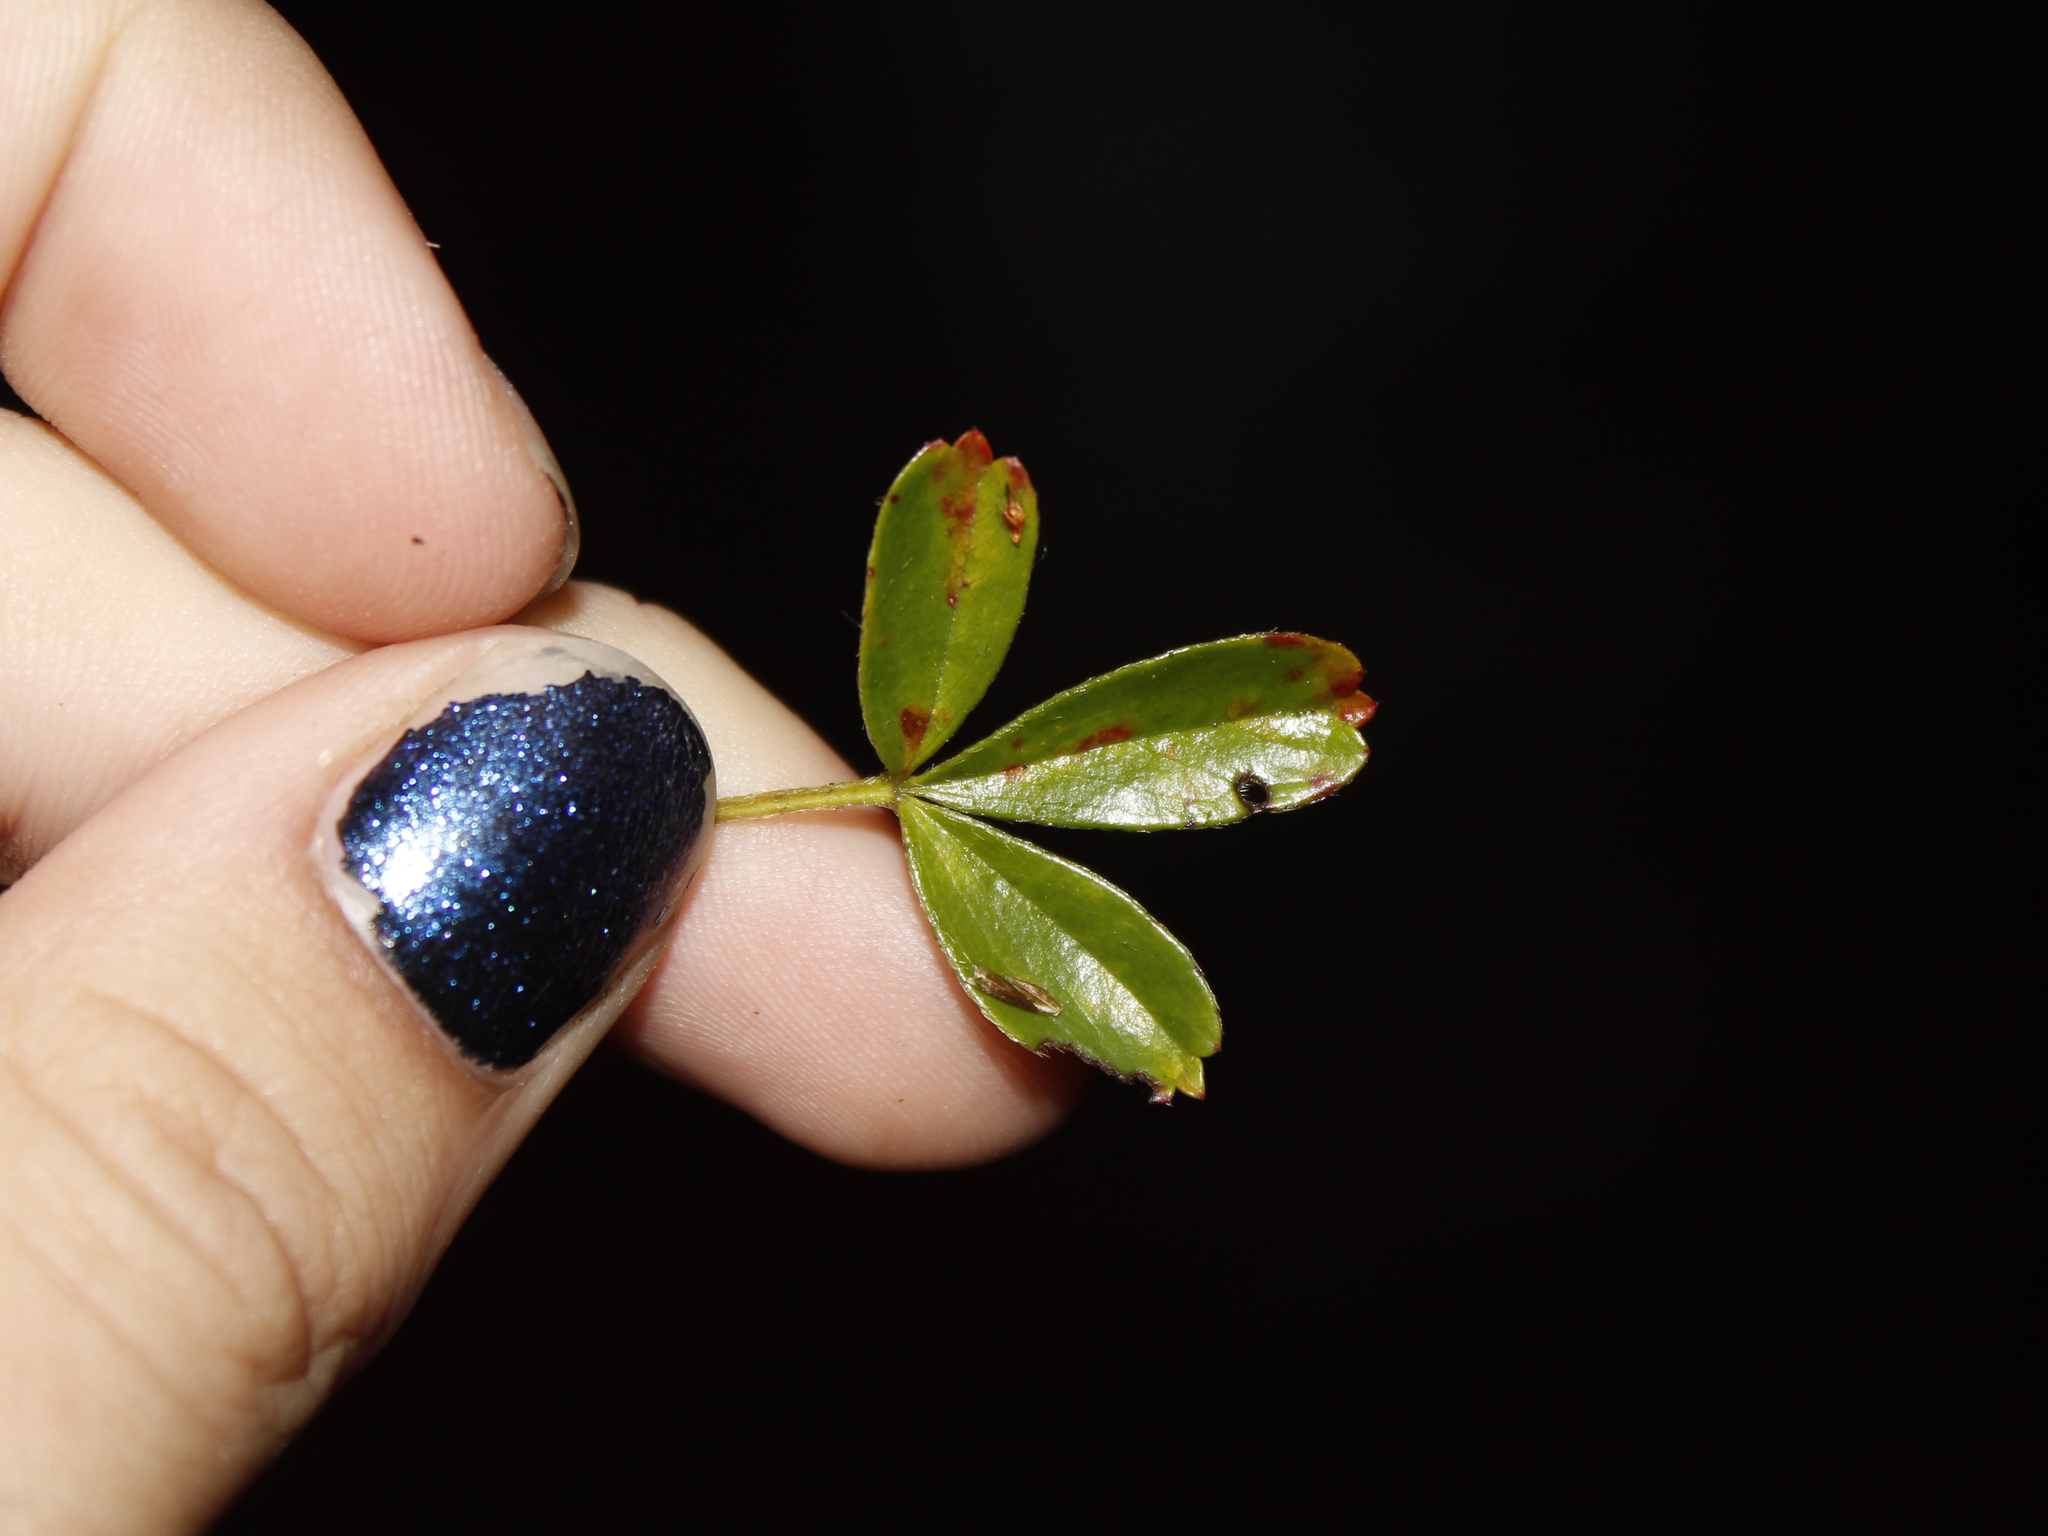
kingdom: Plantae
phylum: Tracheophyta
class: Magnoliopsida
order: Rosales
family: Rosaceae
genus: Sibbaldia
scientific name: Sibbaldia tridentata
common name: Three-toothed cinquefoil
